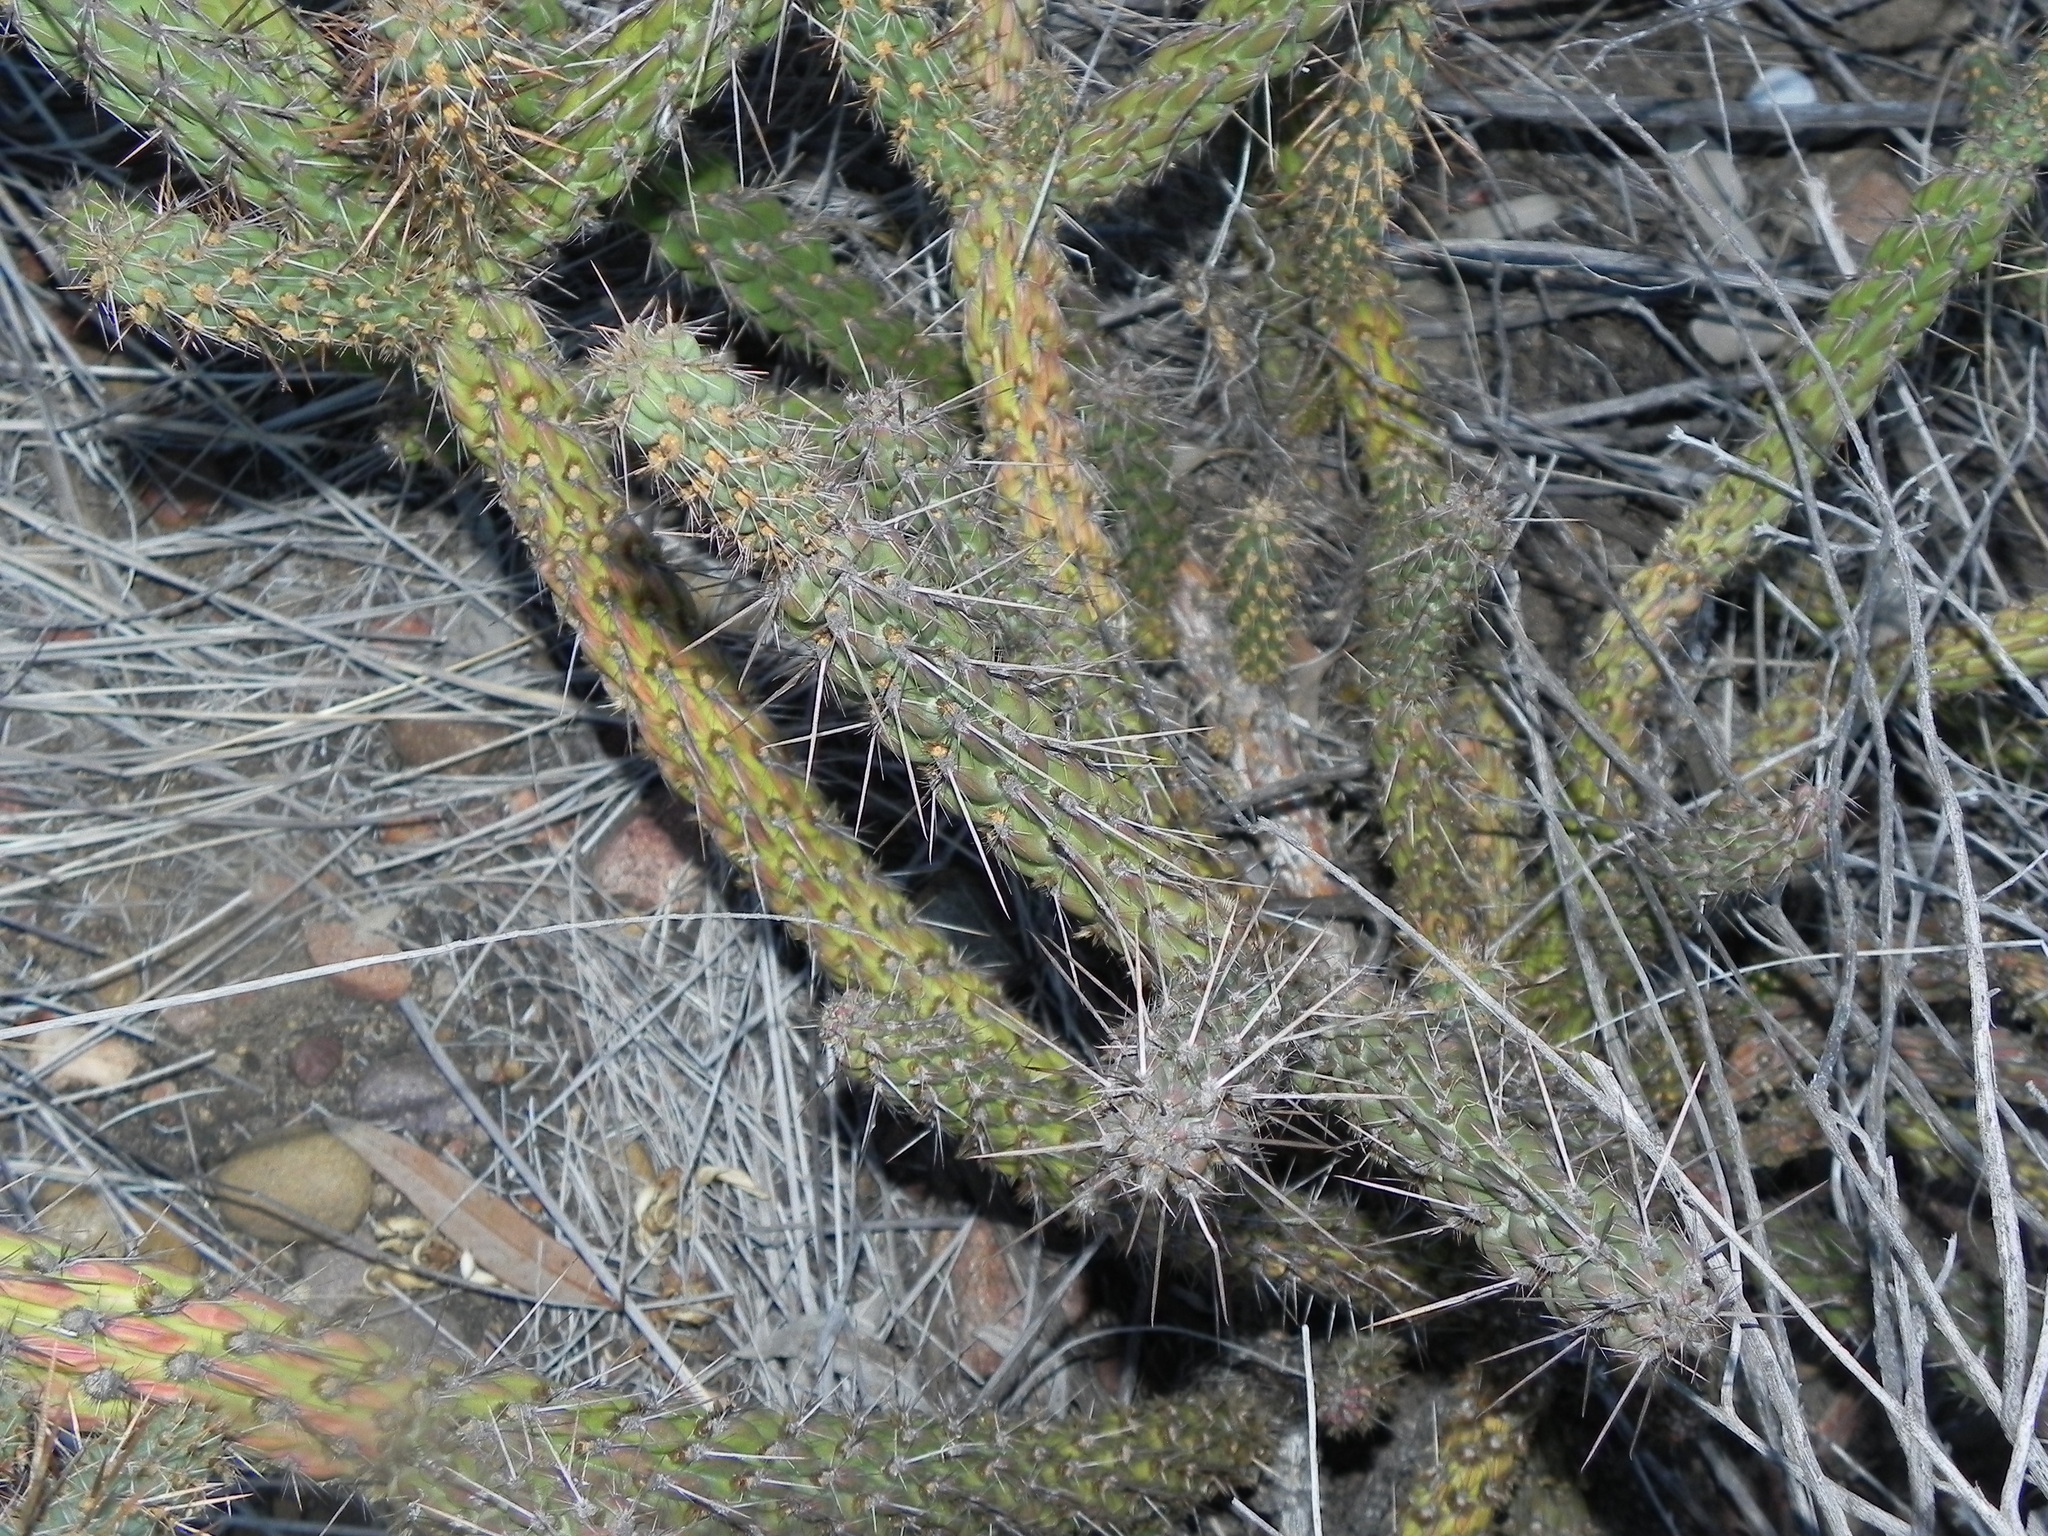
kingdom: Plantae
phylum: Tracheophyta
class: Magnoliopsida
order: Caryophyllales
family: Cactaceae
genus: Cylindropuntia
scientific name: Cylindropuntia californica
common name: Snake cholla
